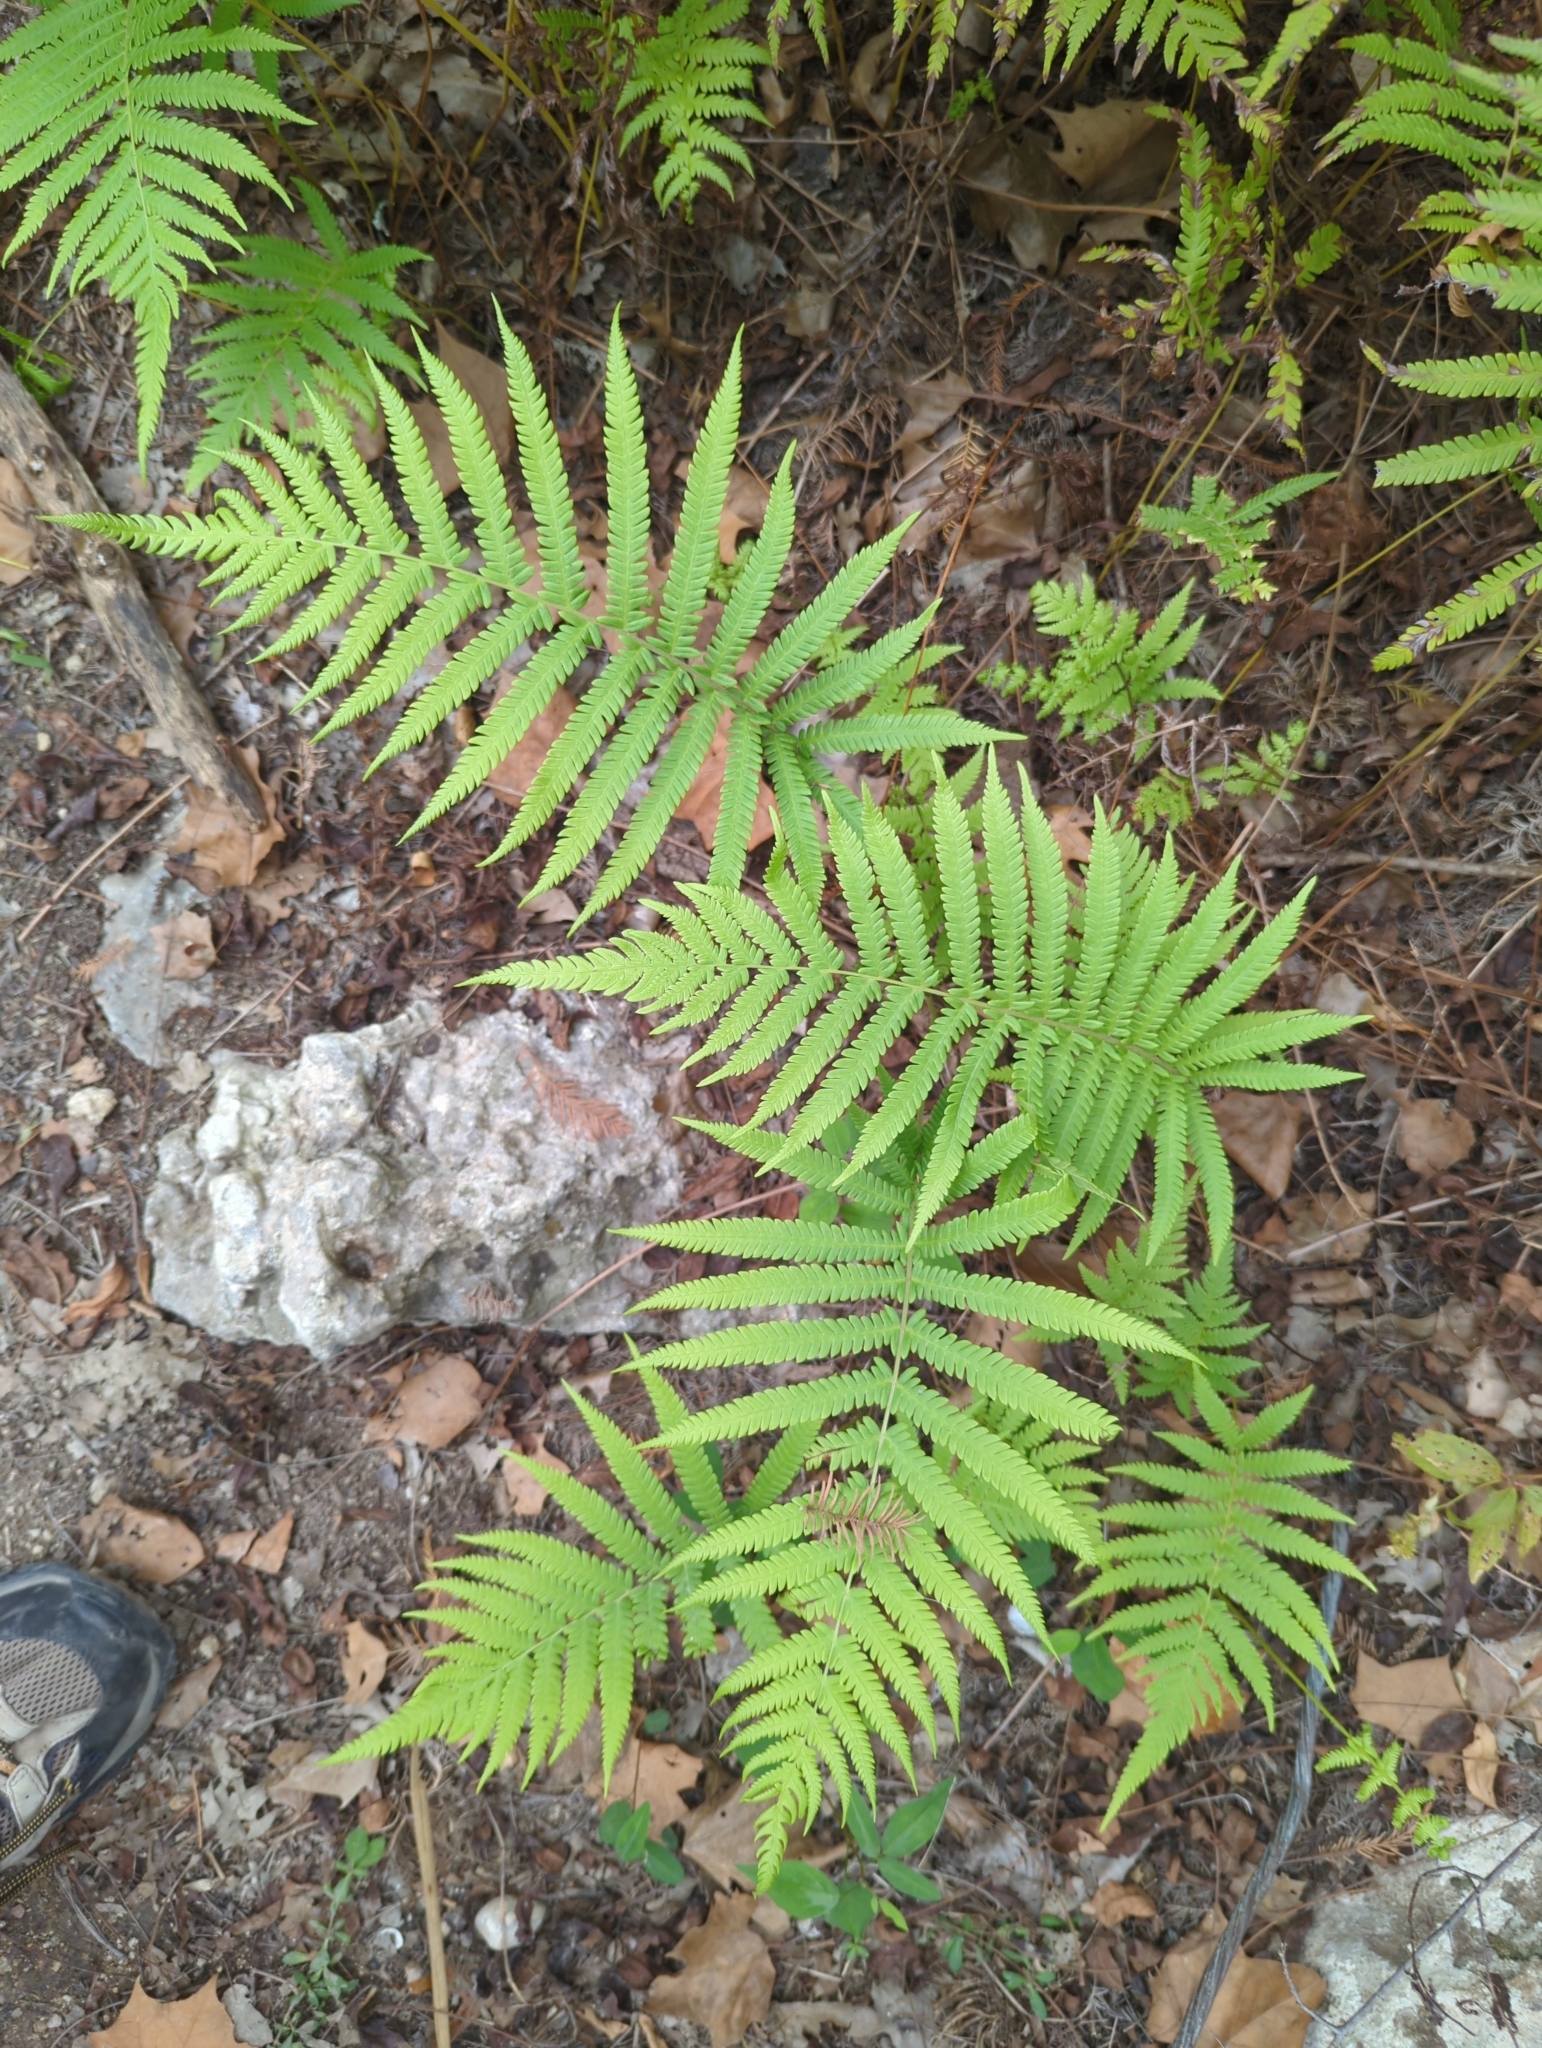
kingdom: Plantae
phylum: Tracheophyta
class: Polypodiopsida
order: Polypodiales
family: Thelypteridaceae
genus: Pelazoneuron
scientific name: Pelazoneuron ovatum
